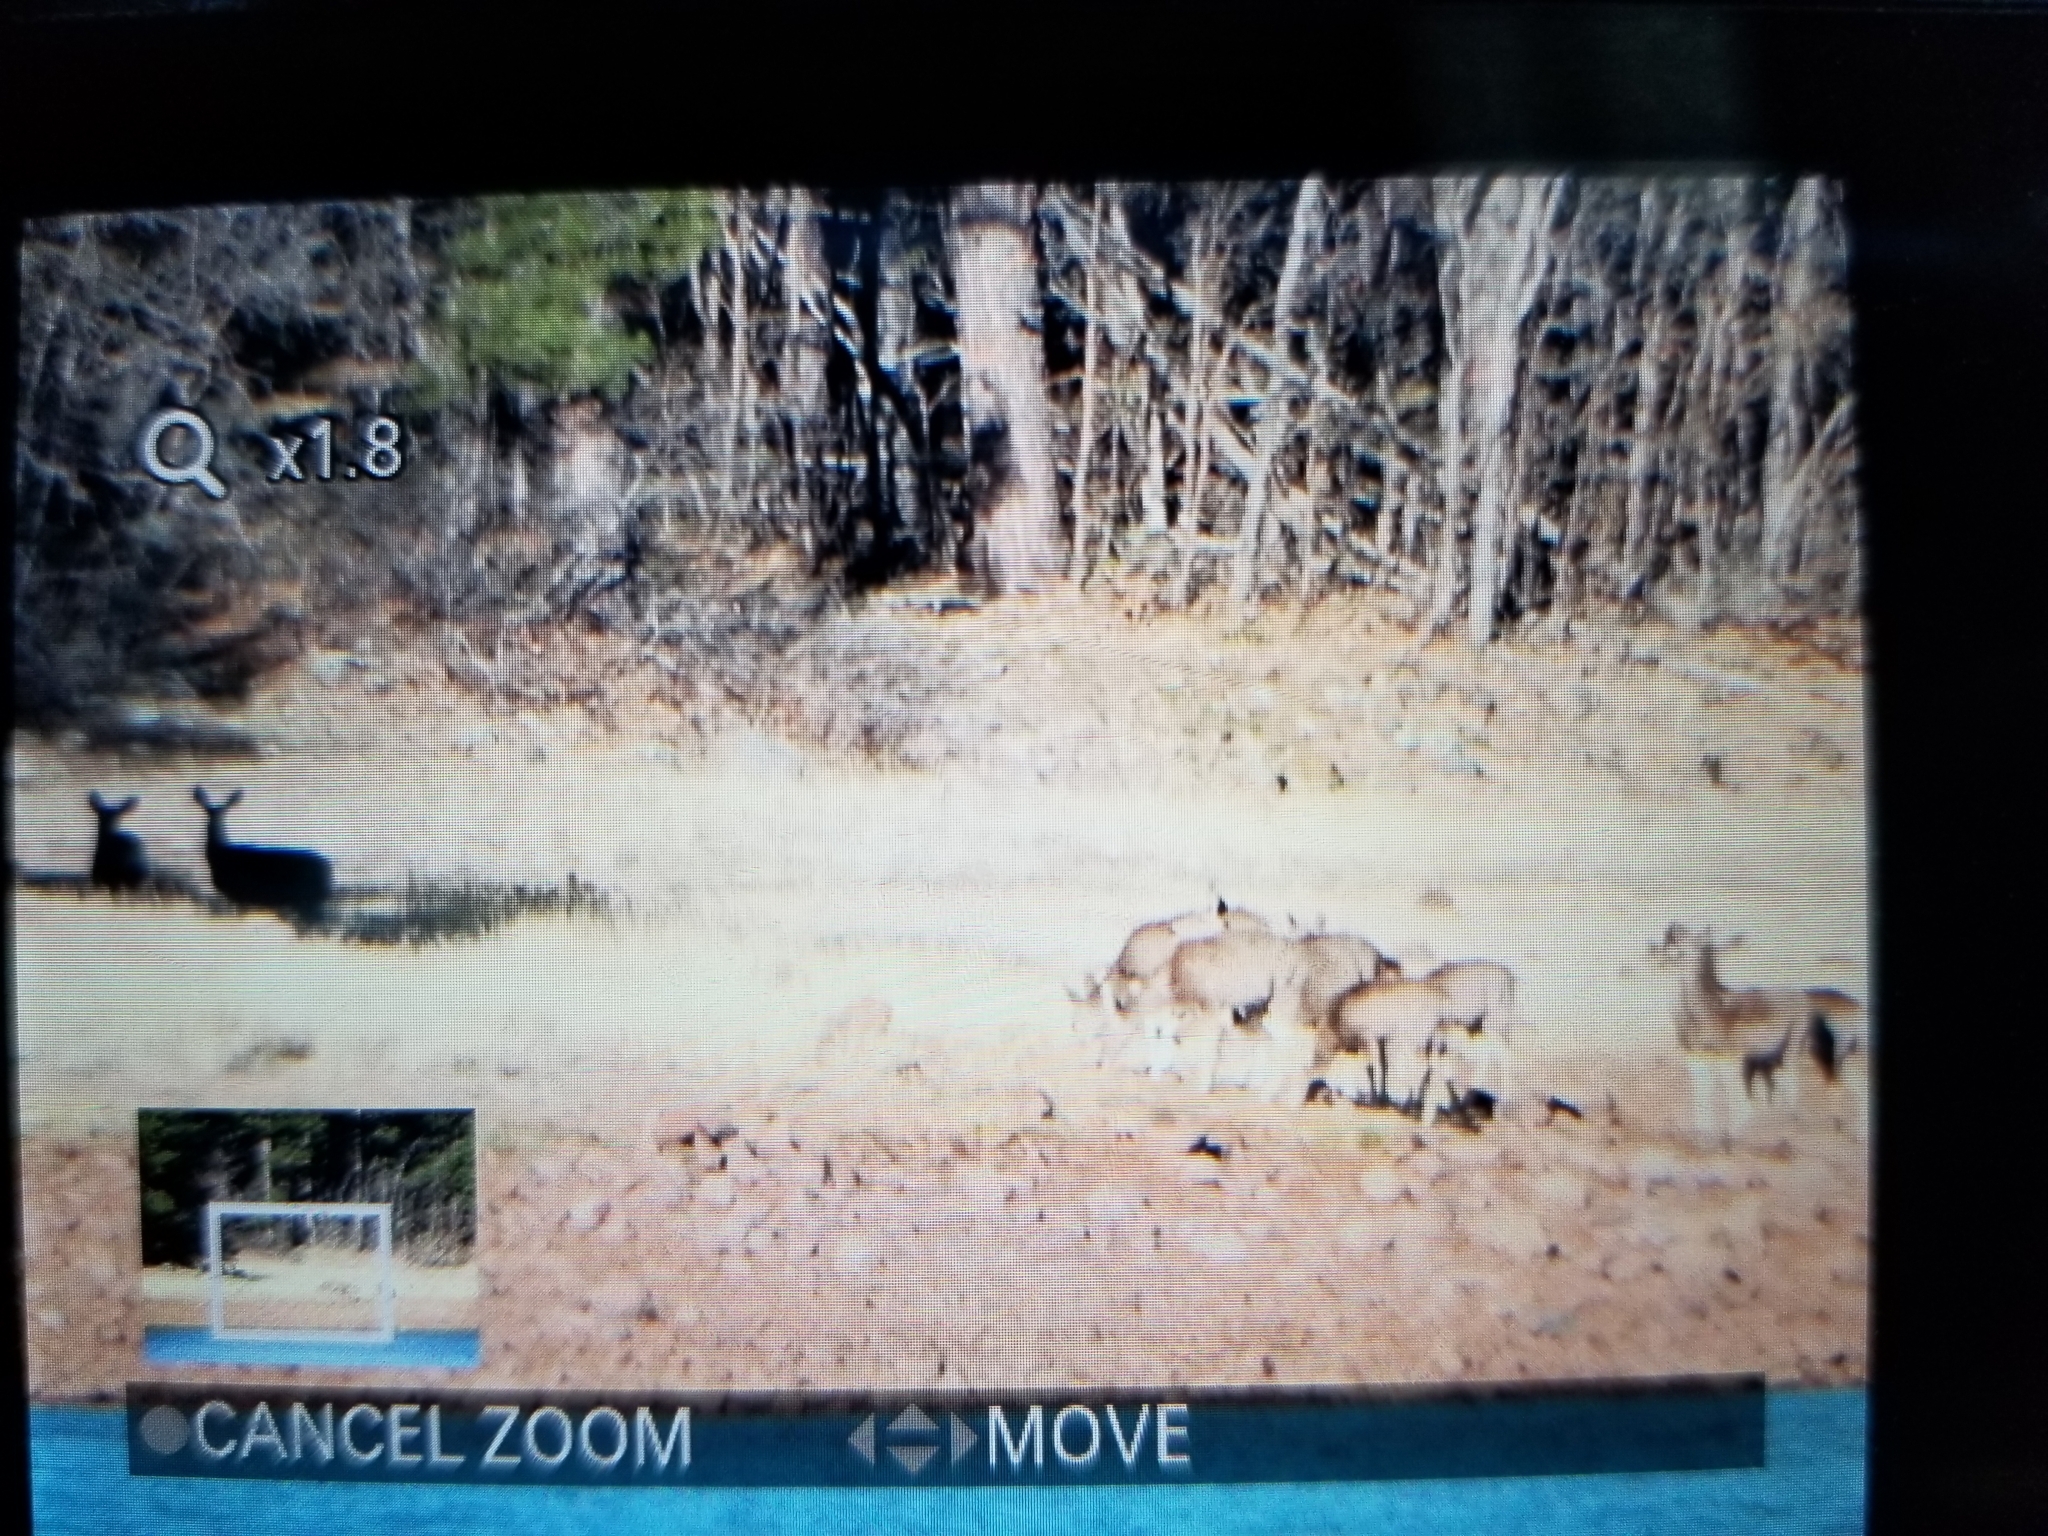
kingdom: Animalia
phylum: Chordata
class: Mammalia
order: Artiodactyla
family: Cervidae
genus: Odocoileus
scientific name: Odocoileus hemionus
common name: Mule deer
